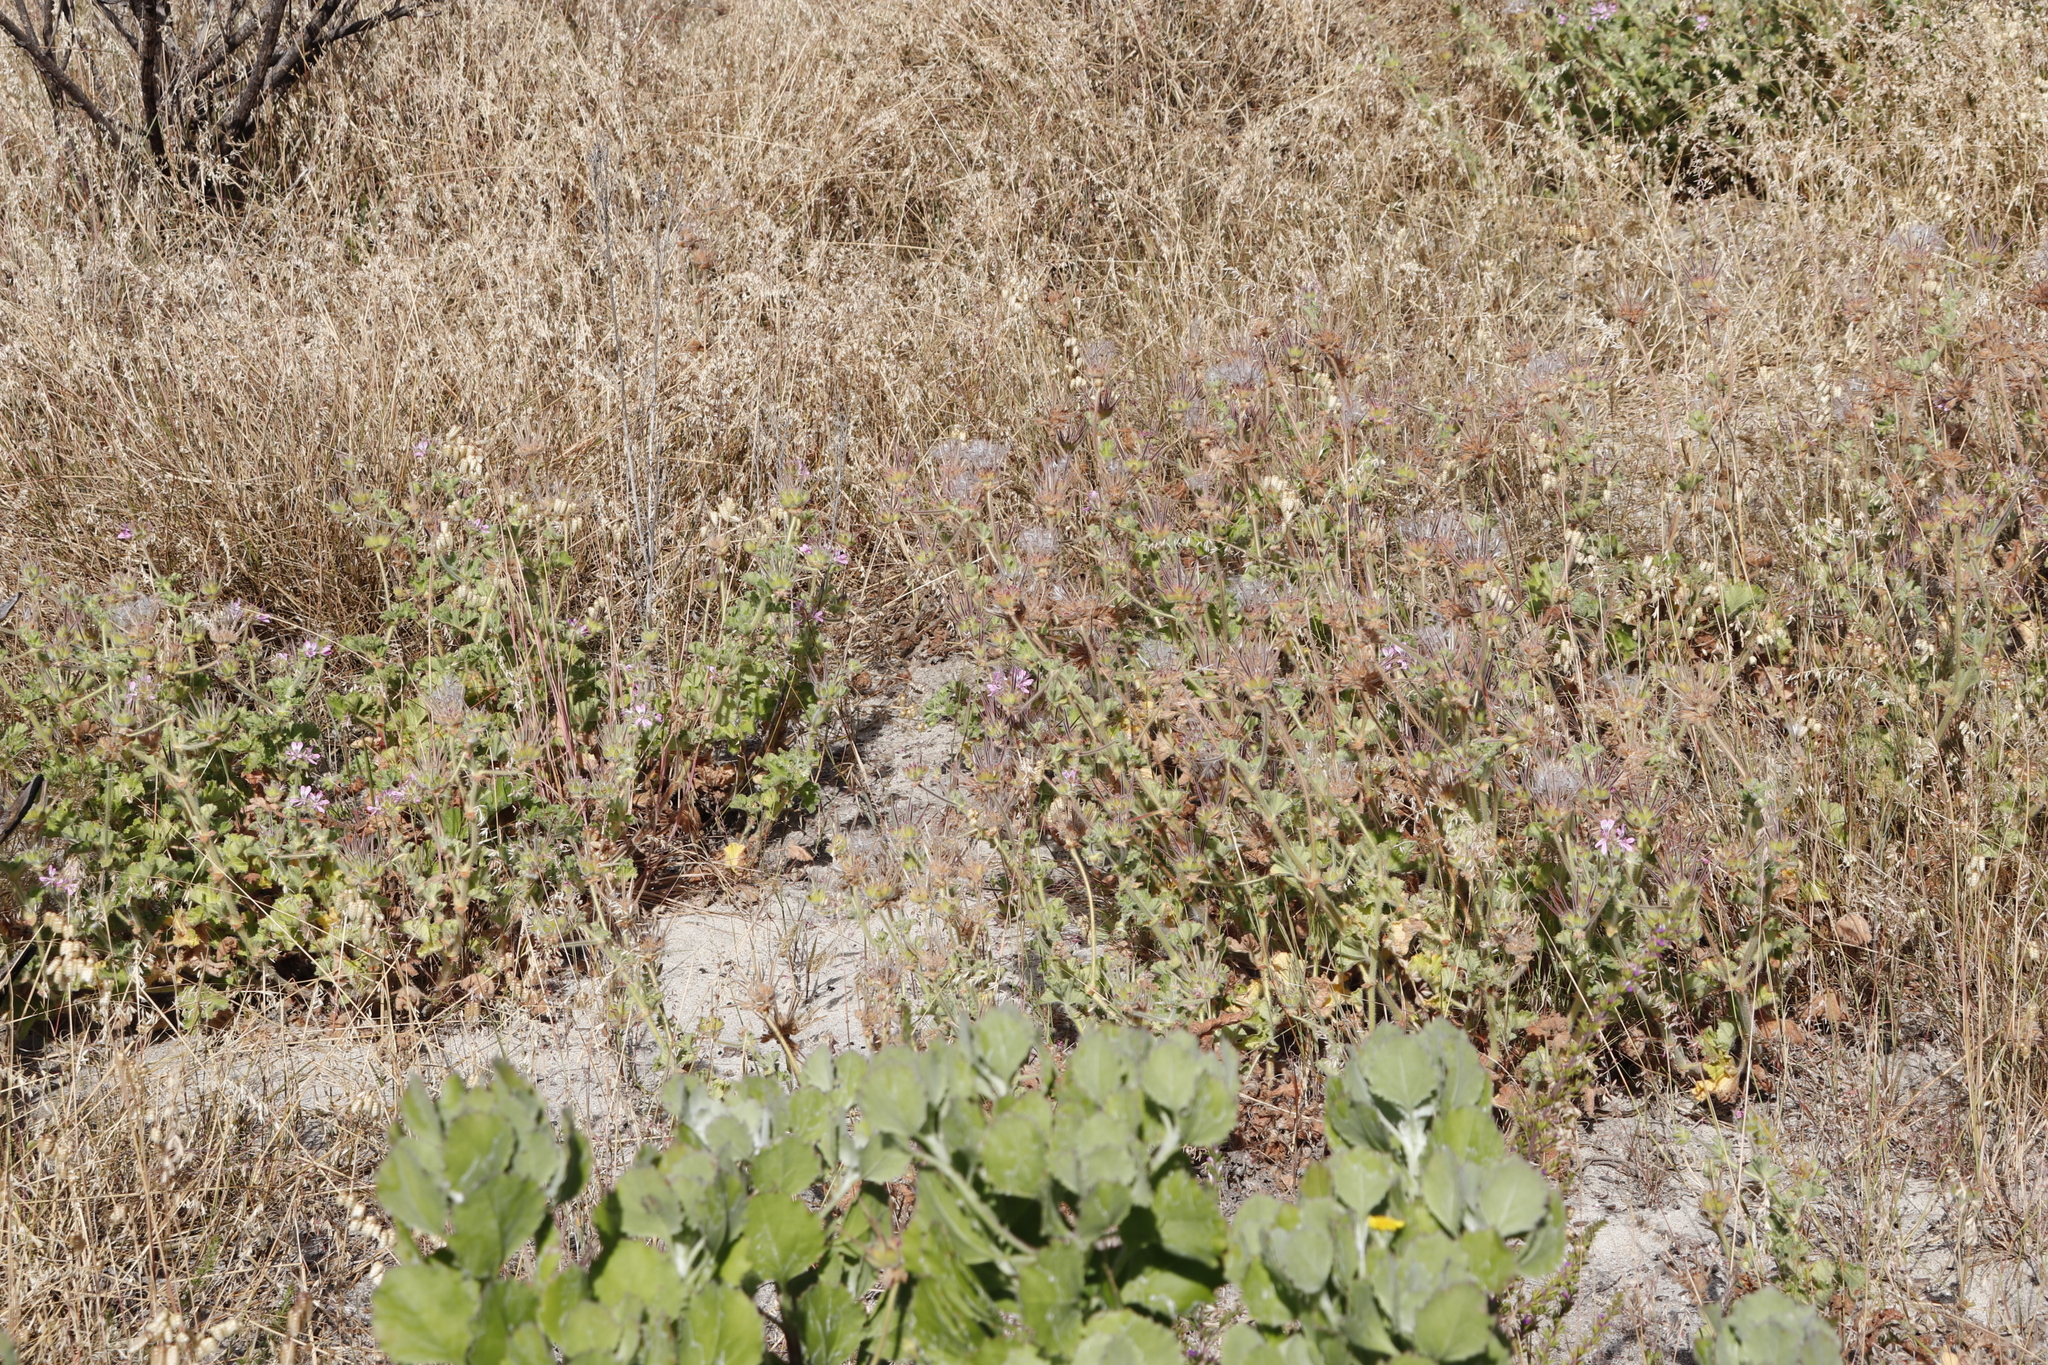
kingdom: Plantae
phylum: Tracheophyta
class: Magnoliopsida
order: Geraniales
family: Geraniaceae
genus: Pelargonium
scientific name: Pelargonium capitatum
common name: Rose scented geranium
